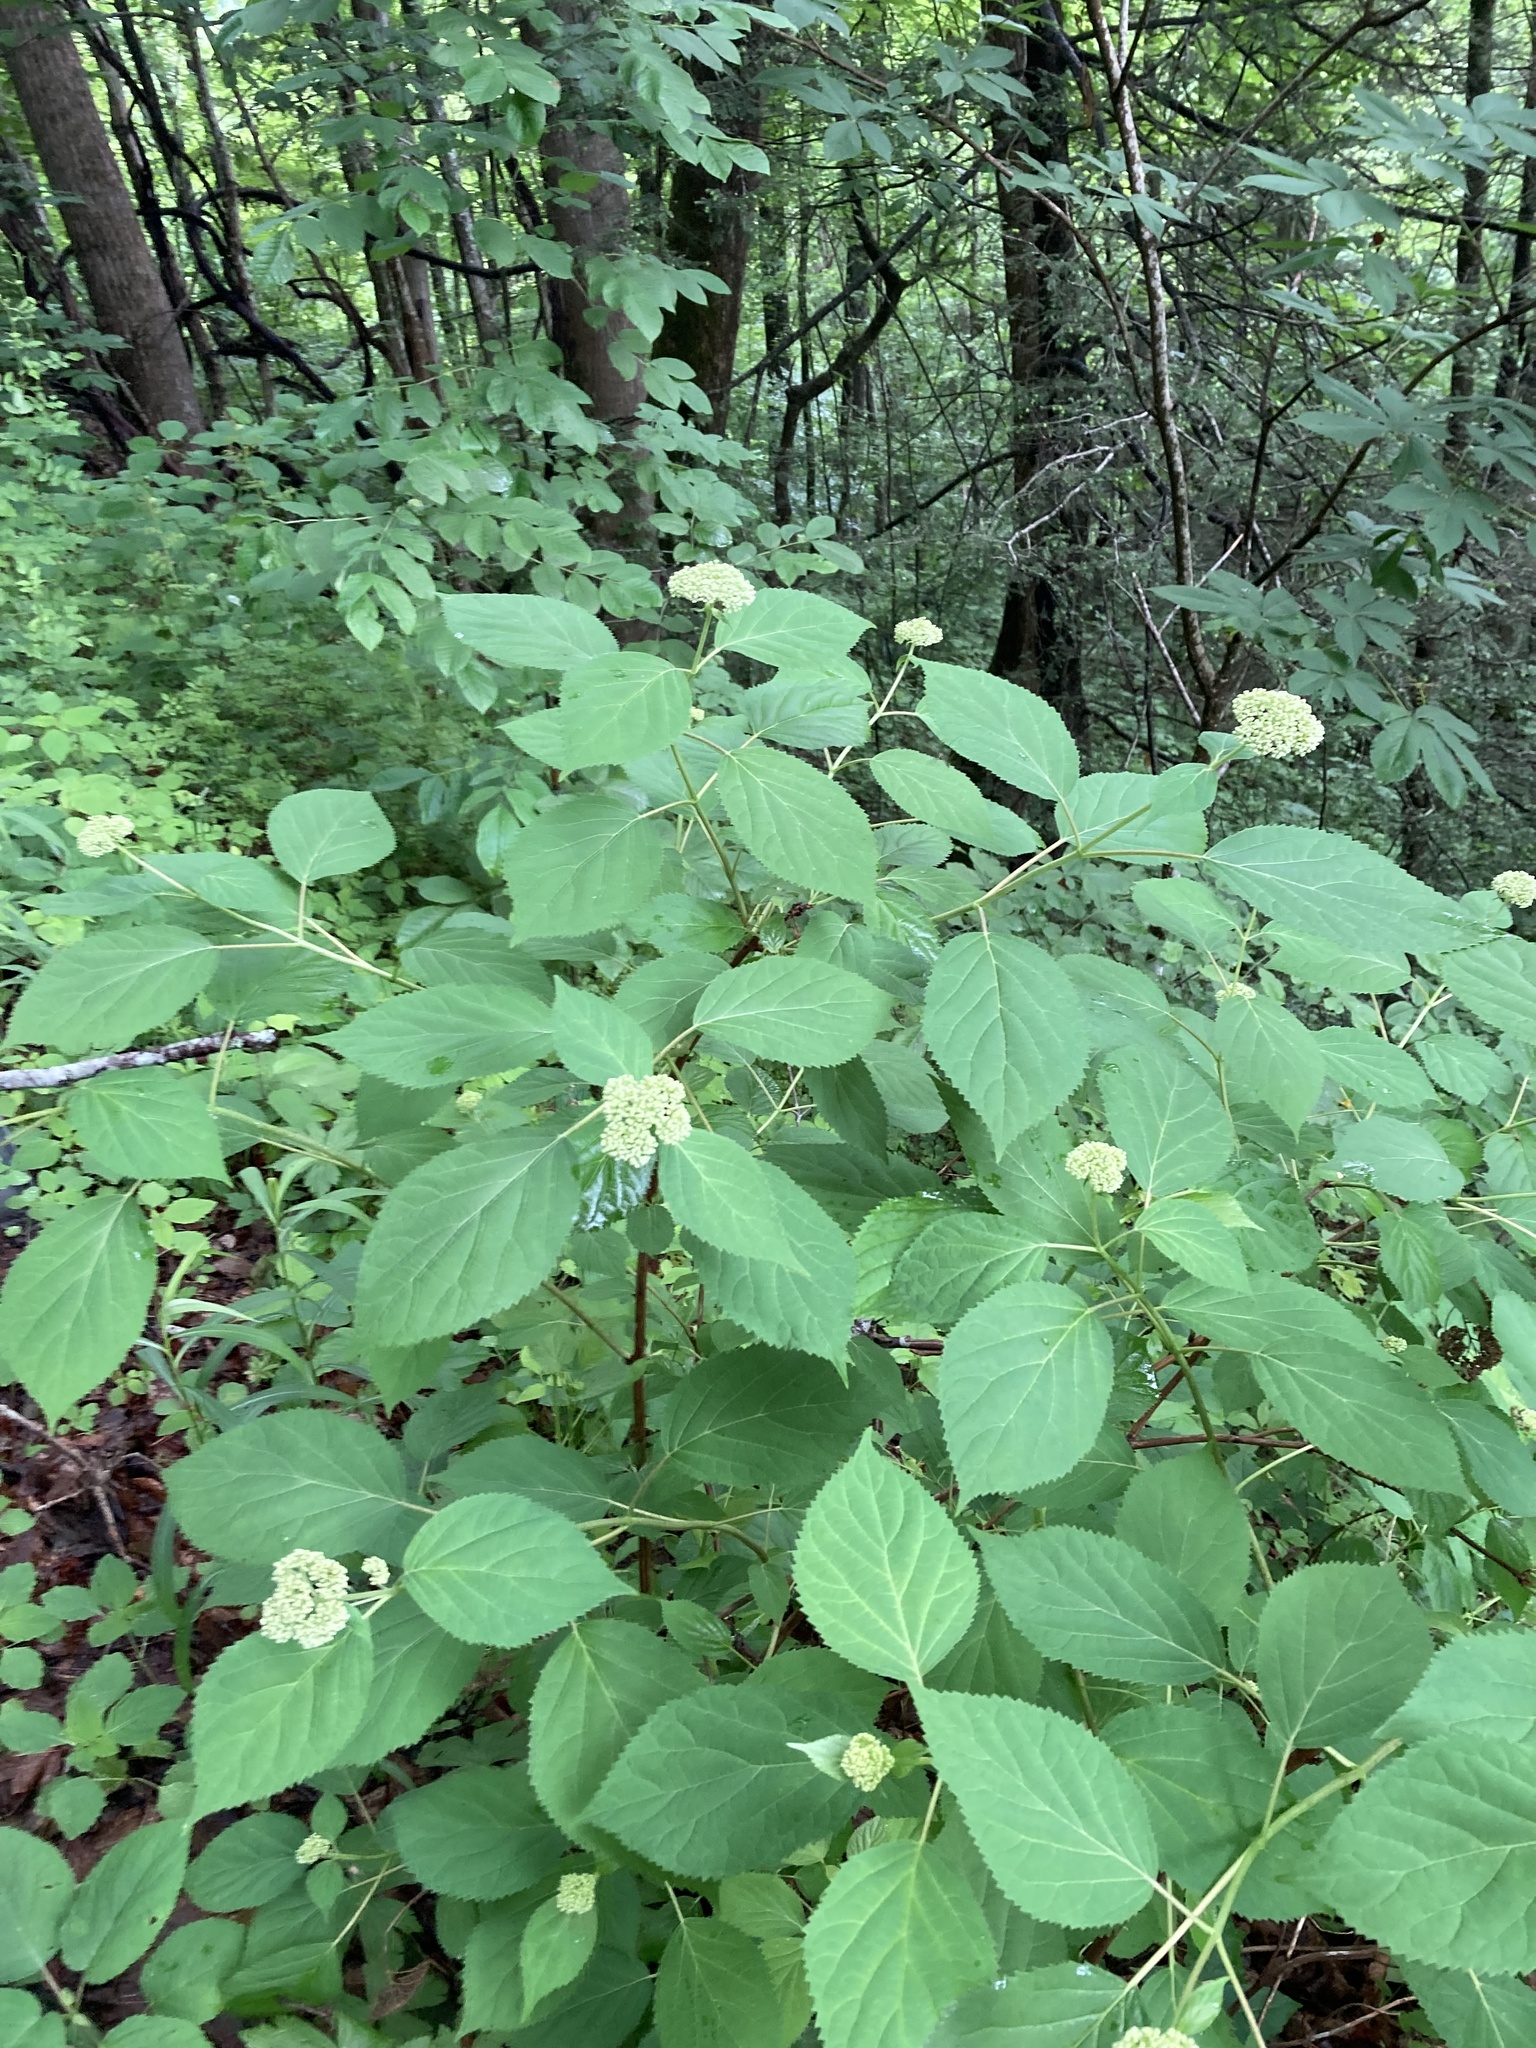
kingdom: Plantae
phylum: Tracheophyta
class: Magnoliopsida
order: Cornales
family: Hydrangeaceae
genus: Hydrangea
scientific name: Hydrangea arborescens
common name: Sevenbark
